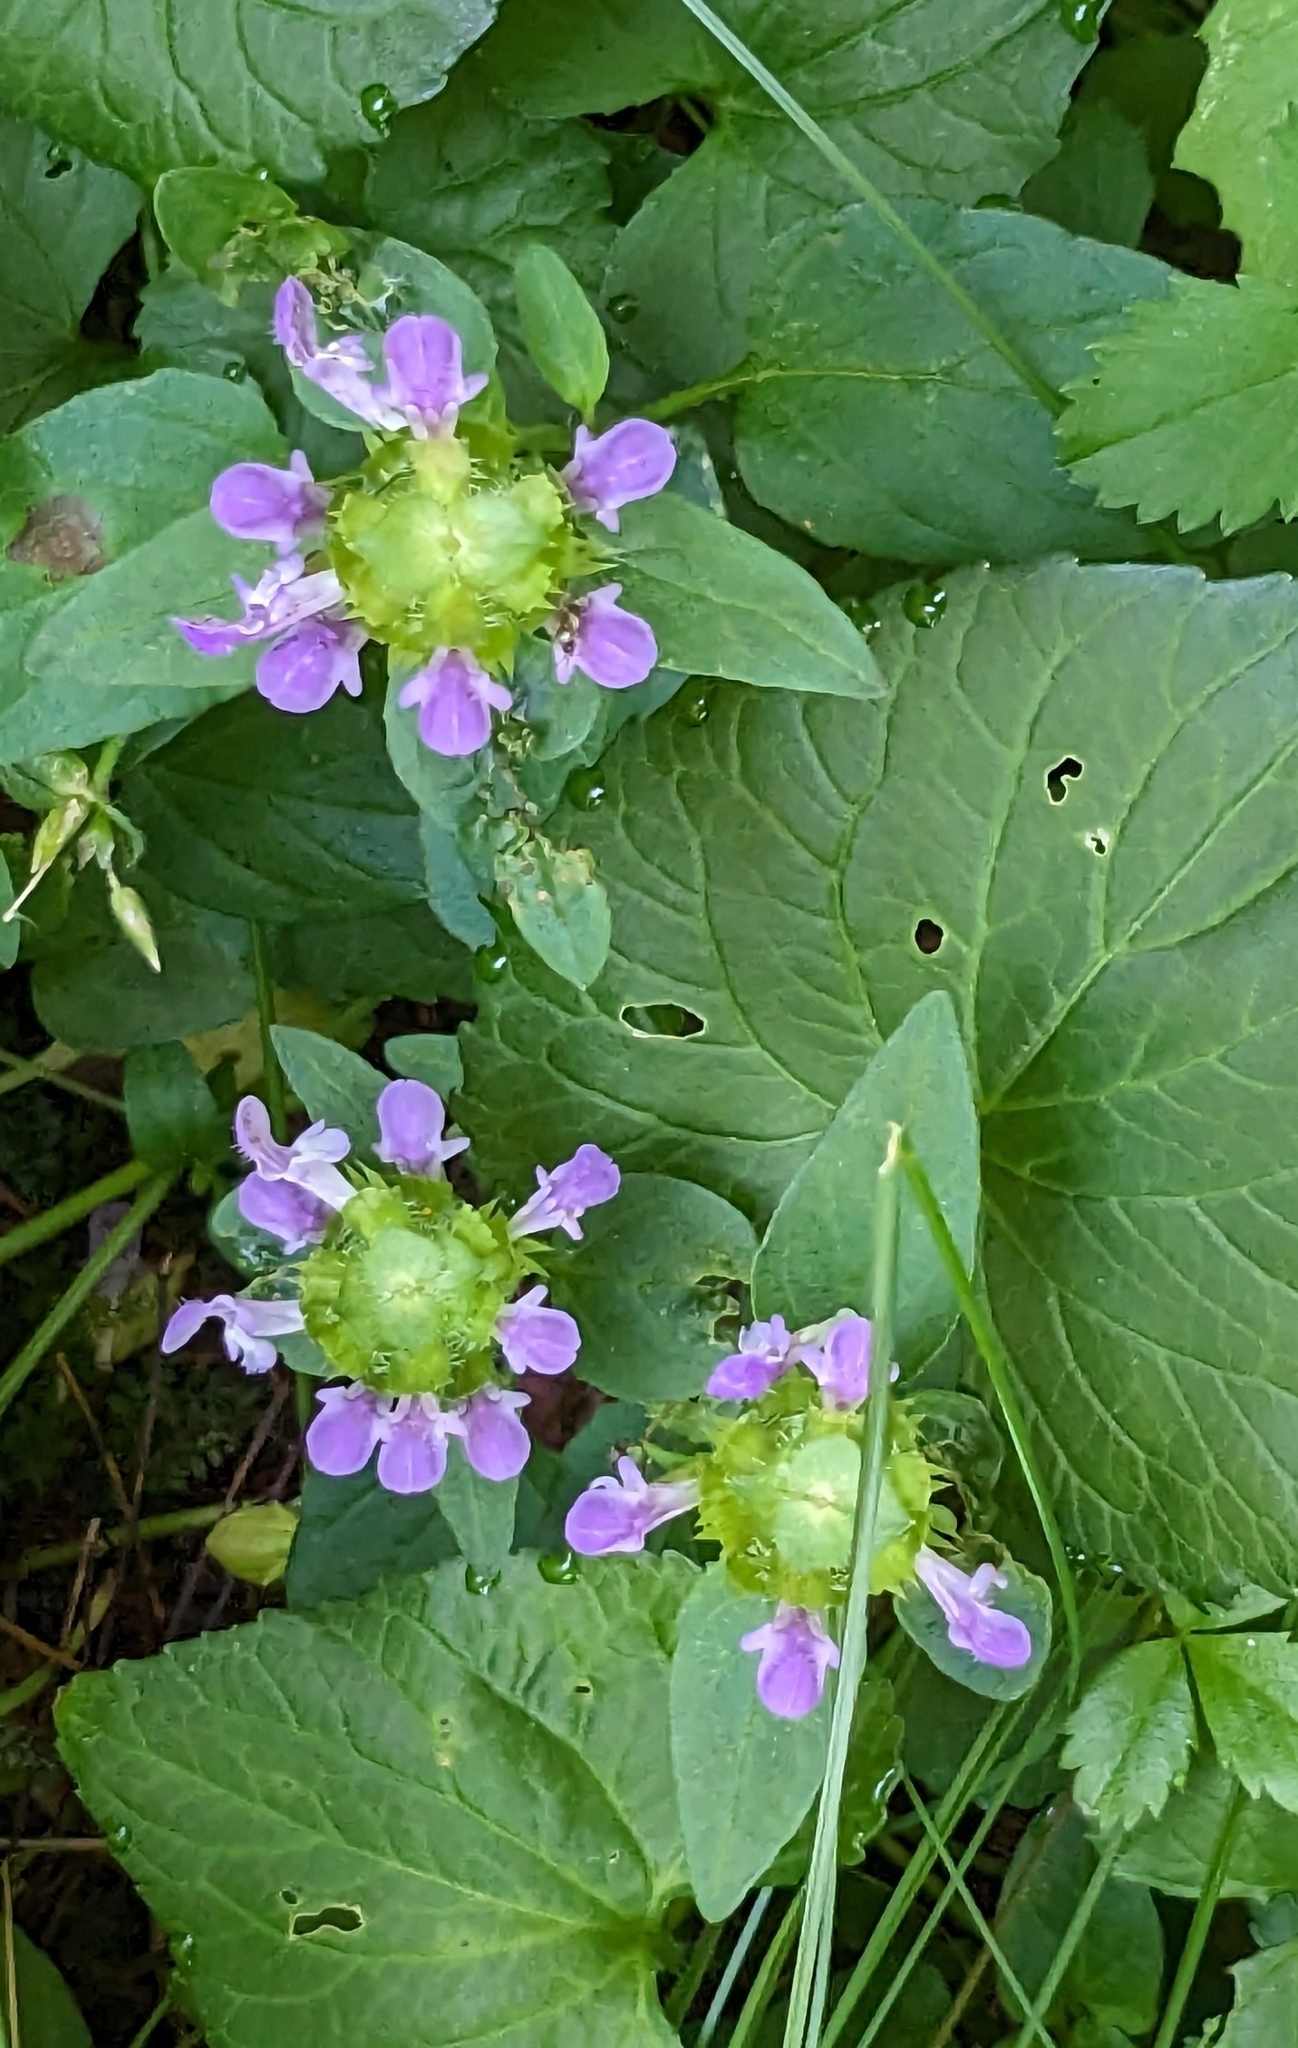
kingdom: Plantae
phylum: Tracheophyta
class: Magnoliopsida
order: Lamiales
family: Lamiaceae
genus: Prunella
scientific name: Prunella vulgaris
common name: Heal-all
